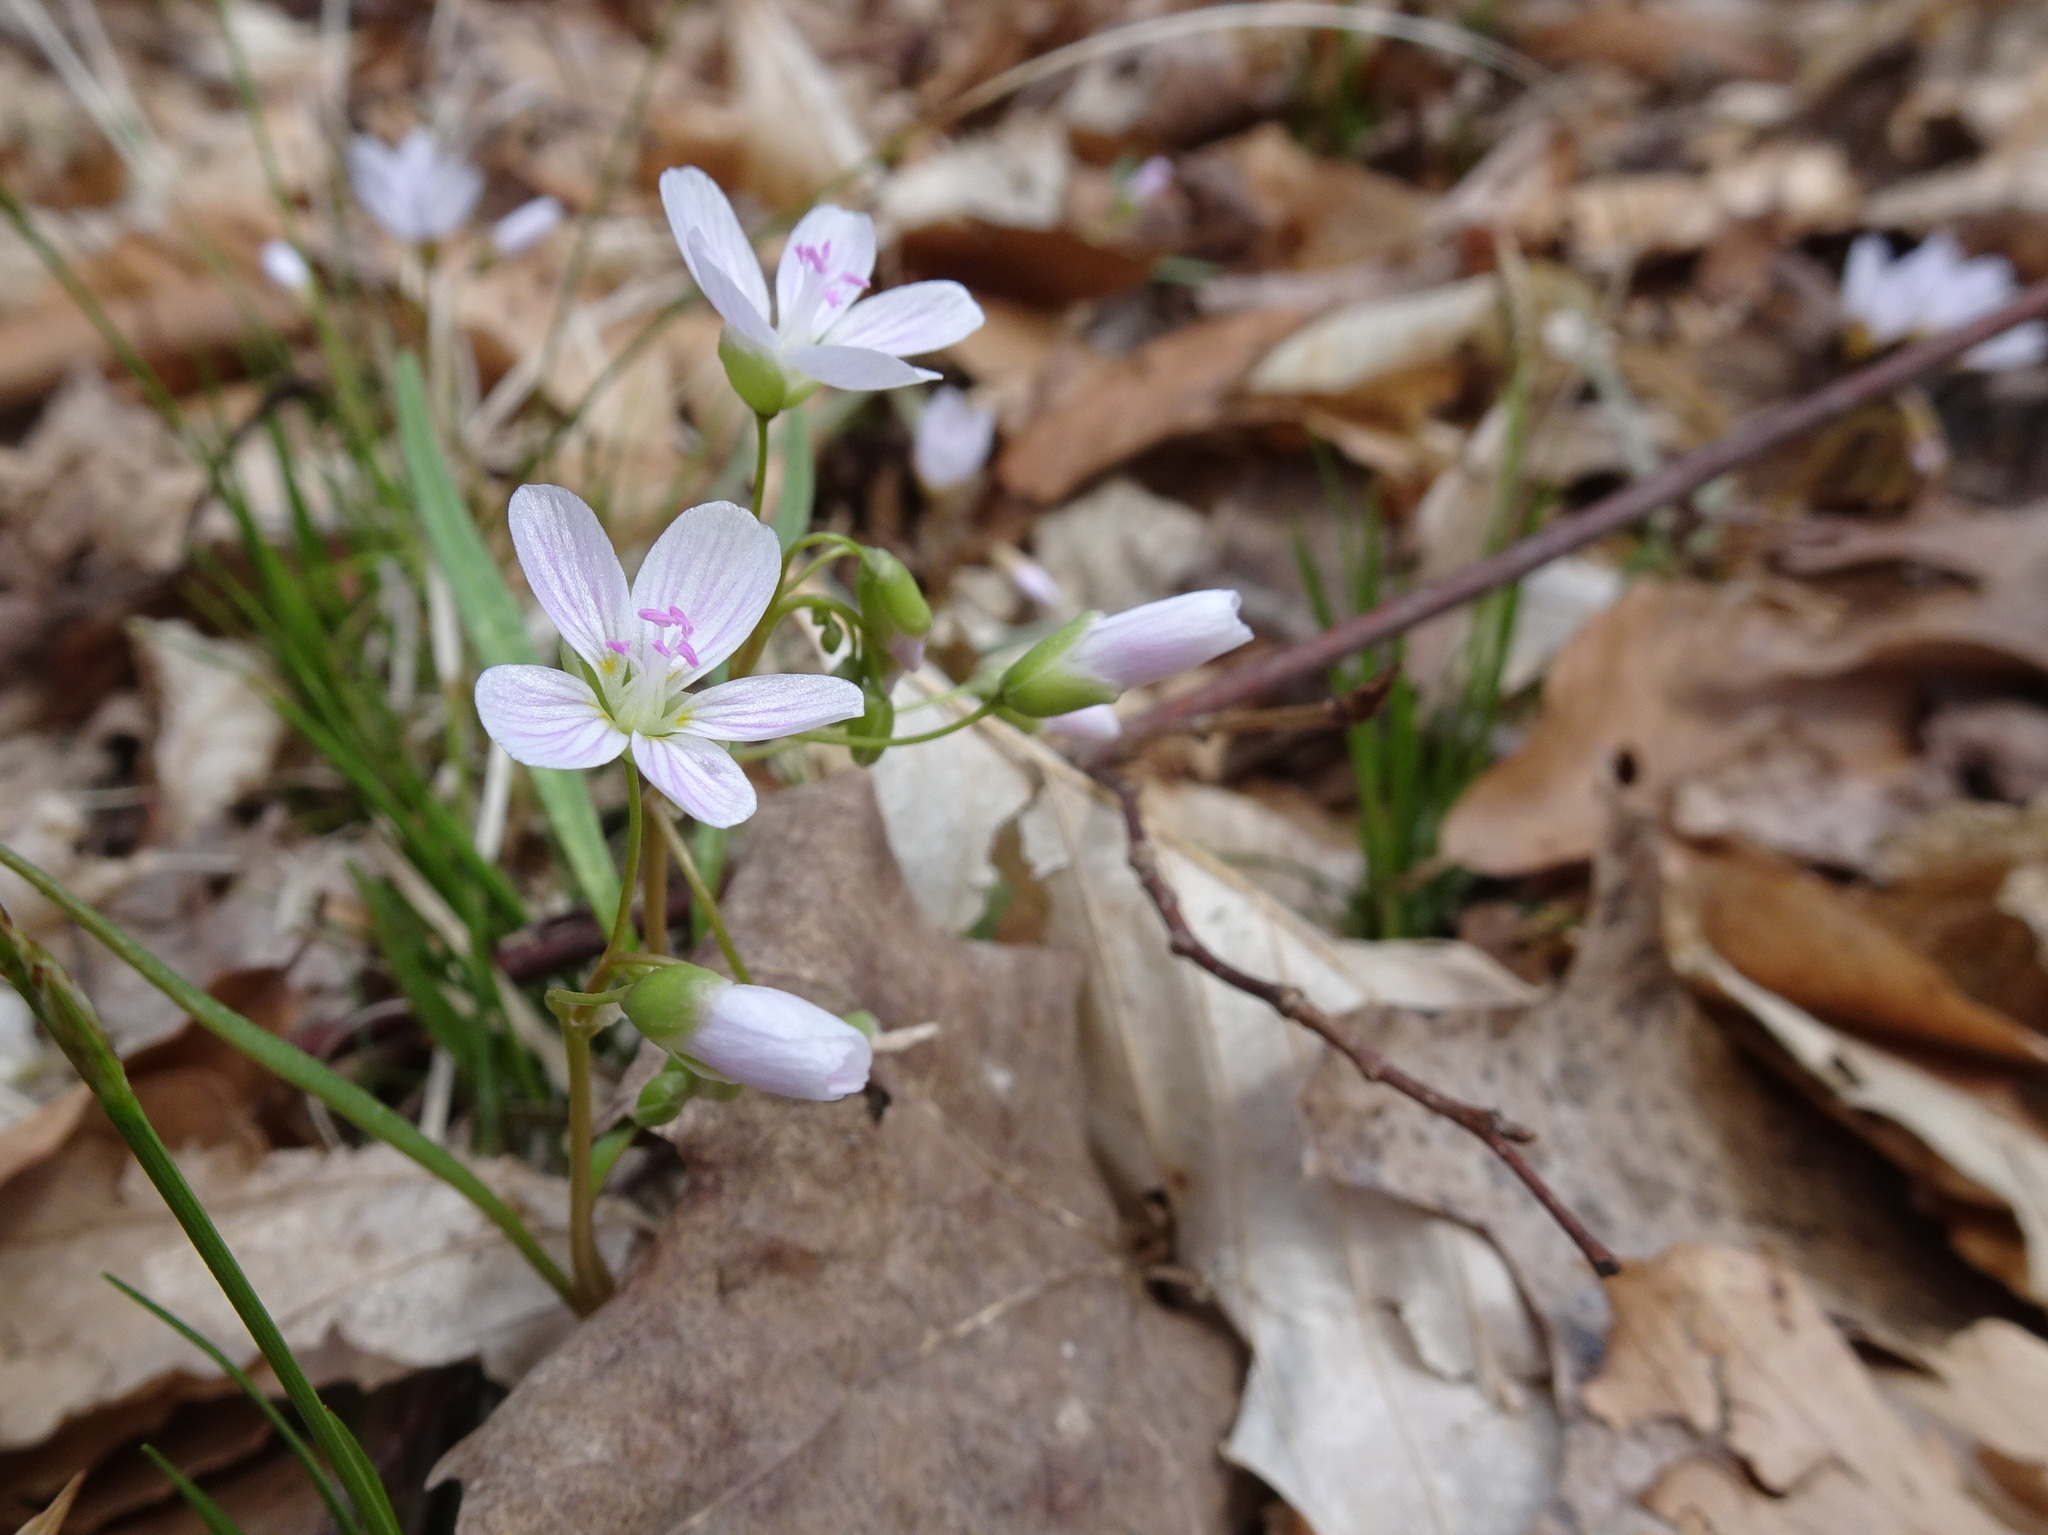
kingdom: Plantae
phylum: Tracheophyta
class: Magnoliopsida
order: Caryophyllales
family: Montiaceae
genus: Claytonia
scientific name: Claytonia virginica
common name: Virginia springbeauty
